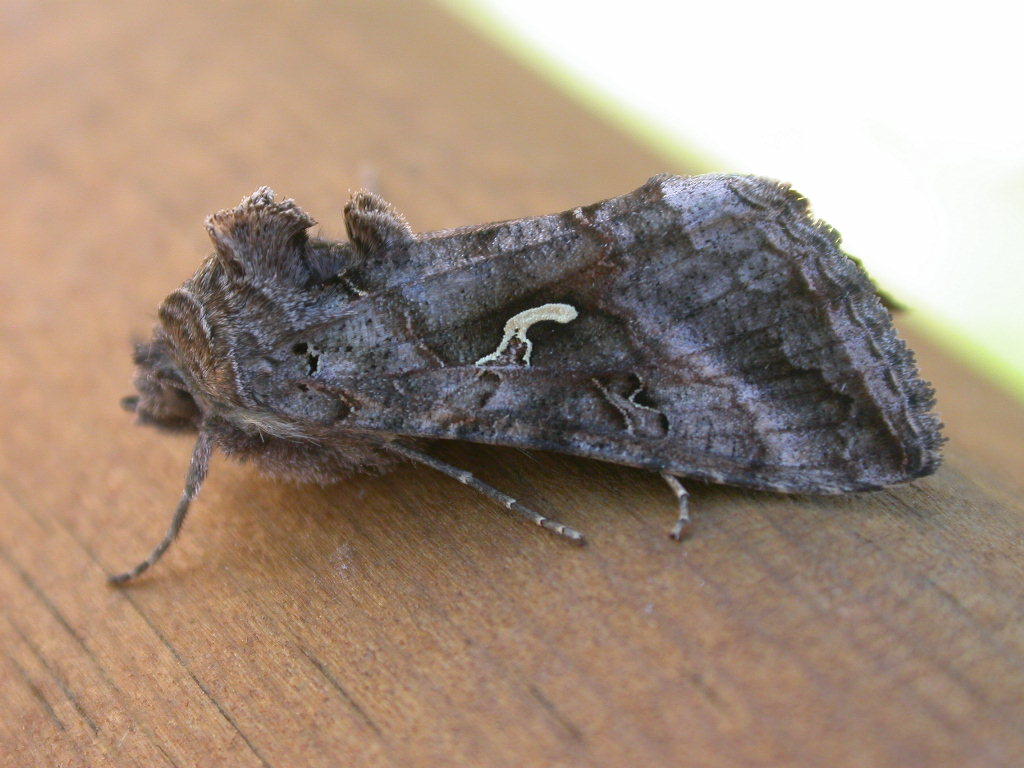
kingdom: Animalia
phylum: Arthropoda
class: Insecta
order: Lepidoptera
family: Noctuidae
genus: Autographa
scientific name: Autographa gamma
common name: Silver y
